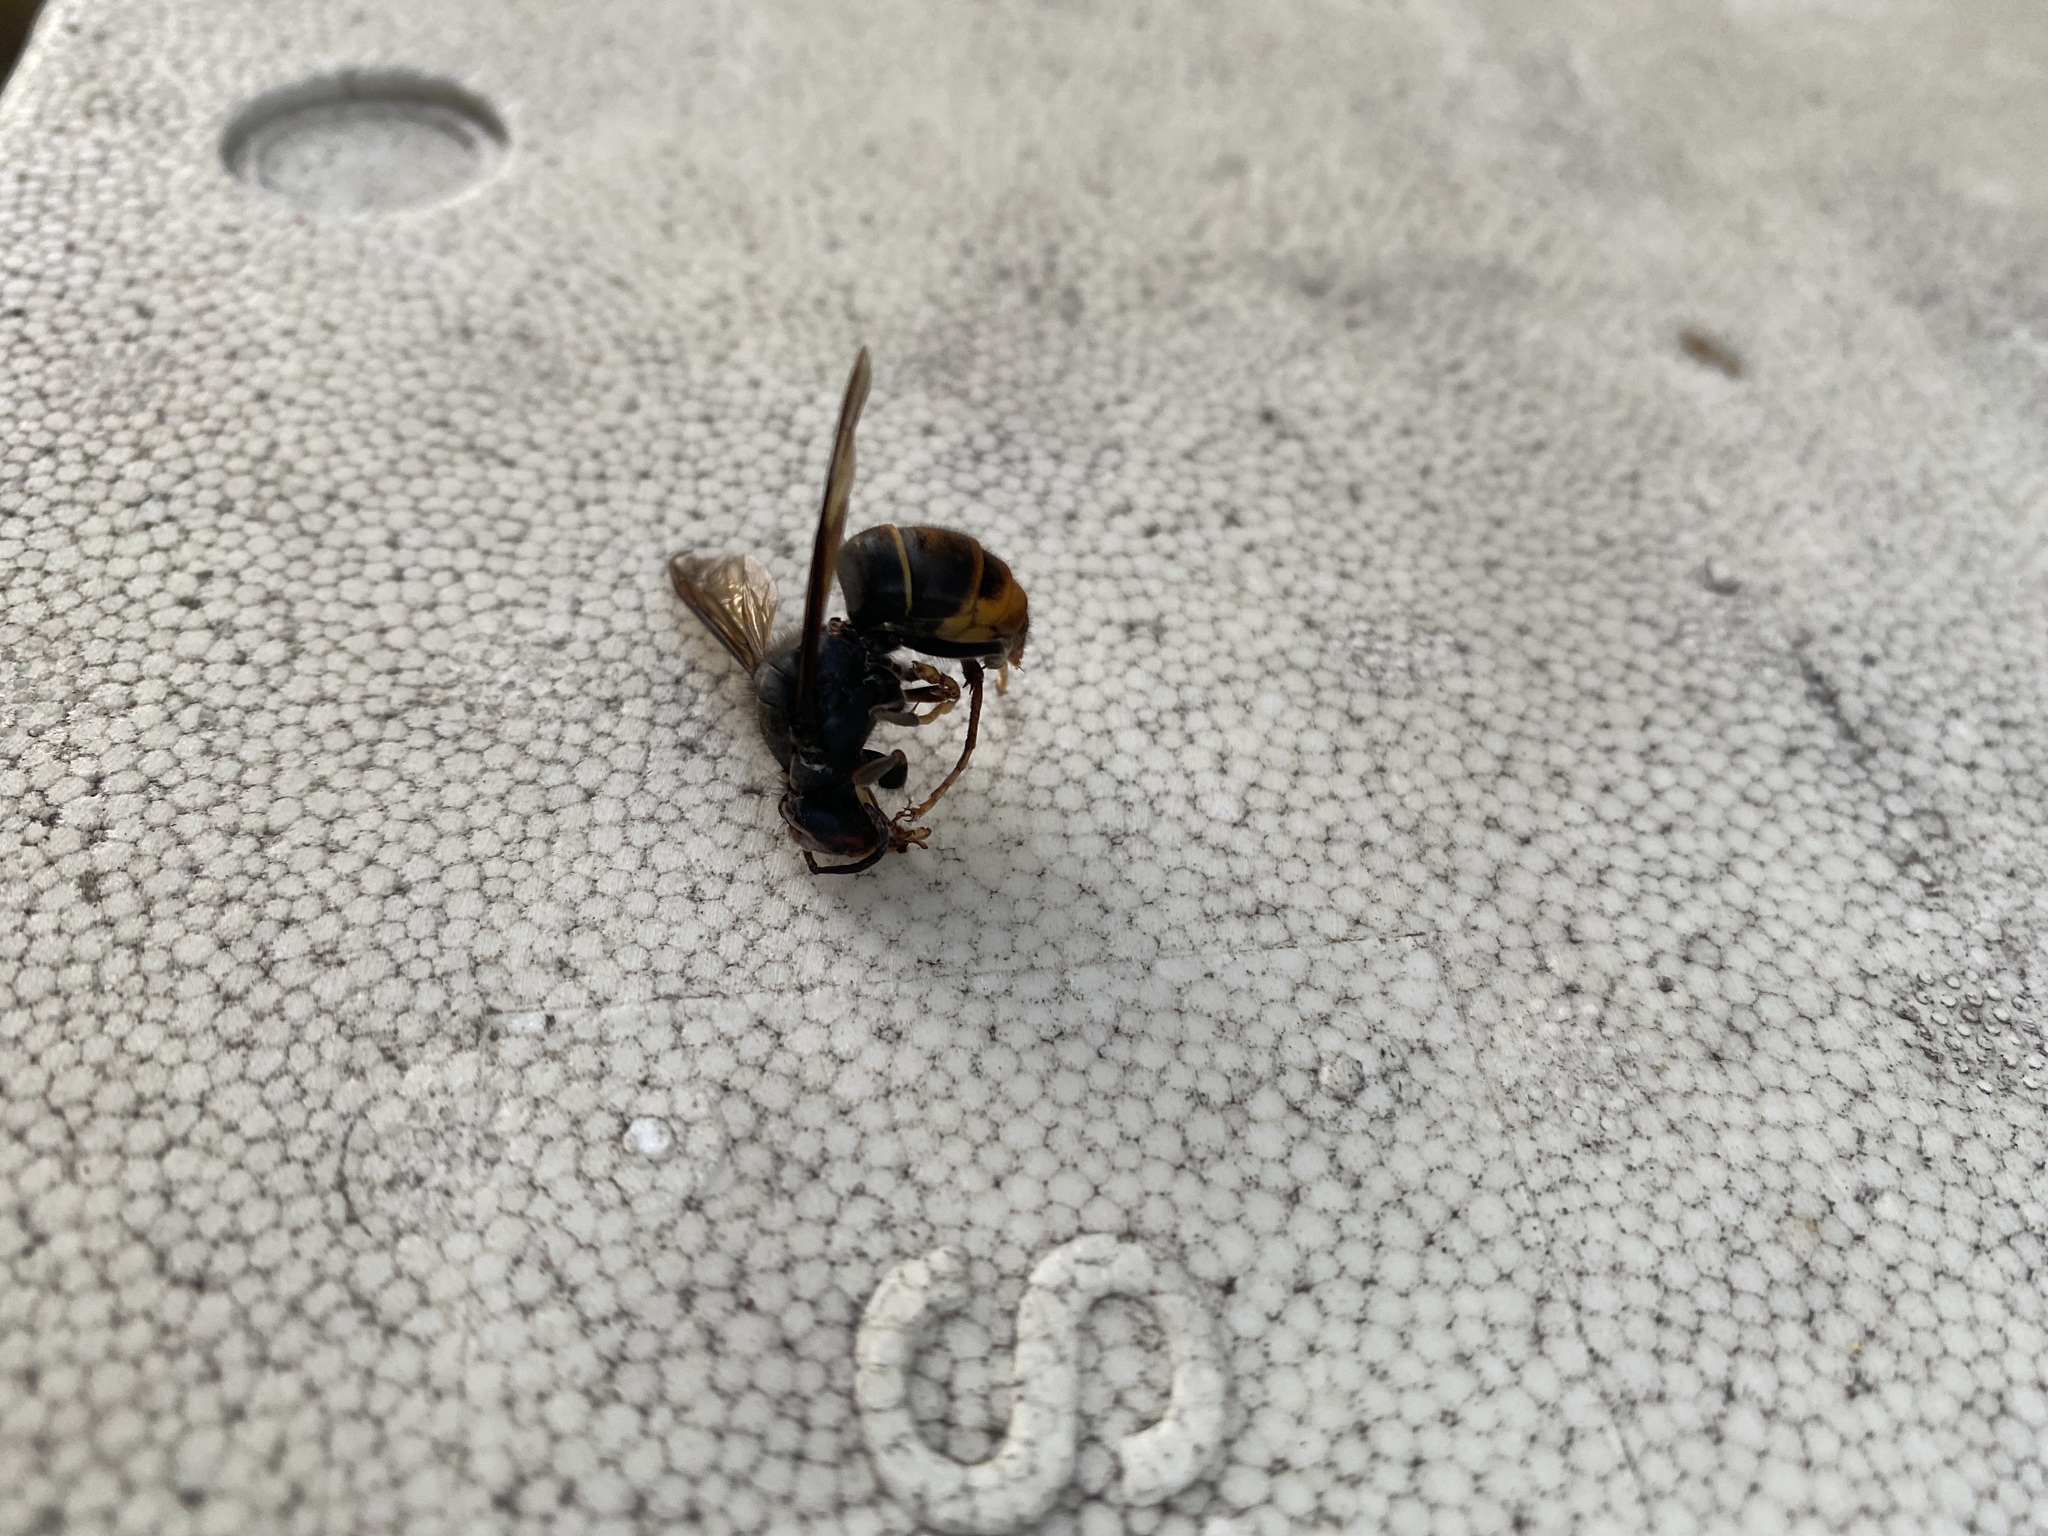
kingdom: Animalia
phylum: Arthropoda
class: Insecta
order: Hymenoptera
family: Vespidae
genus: Vespa
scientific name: Vespa velutina
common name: Asian hornet
